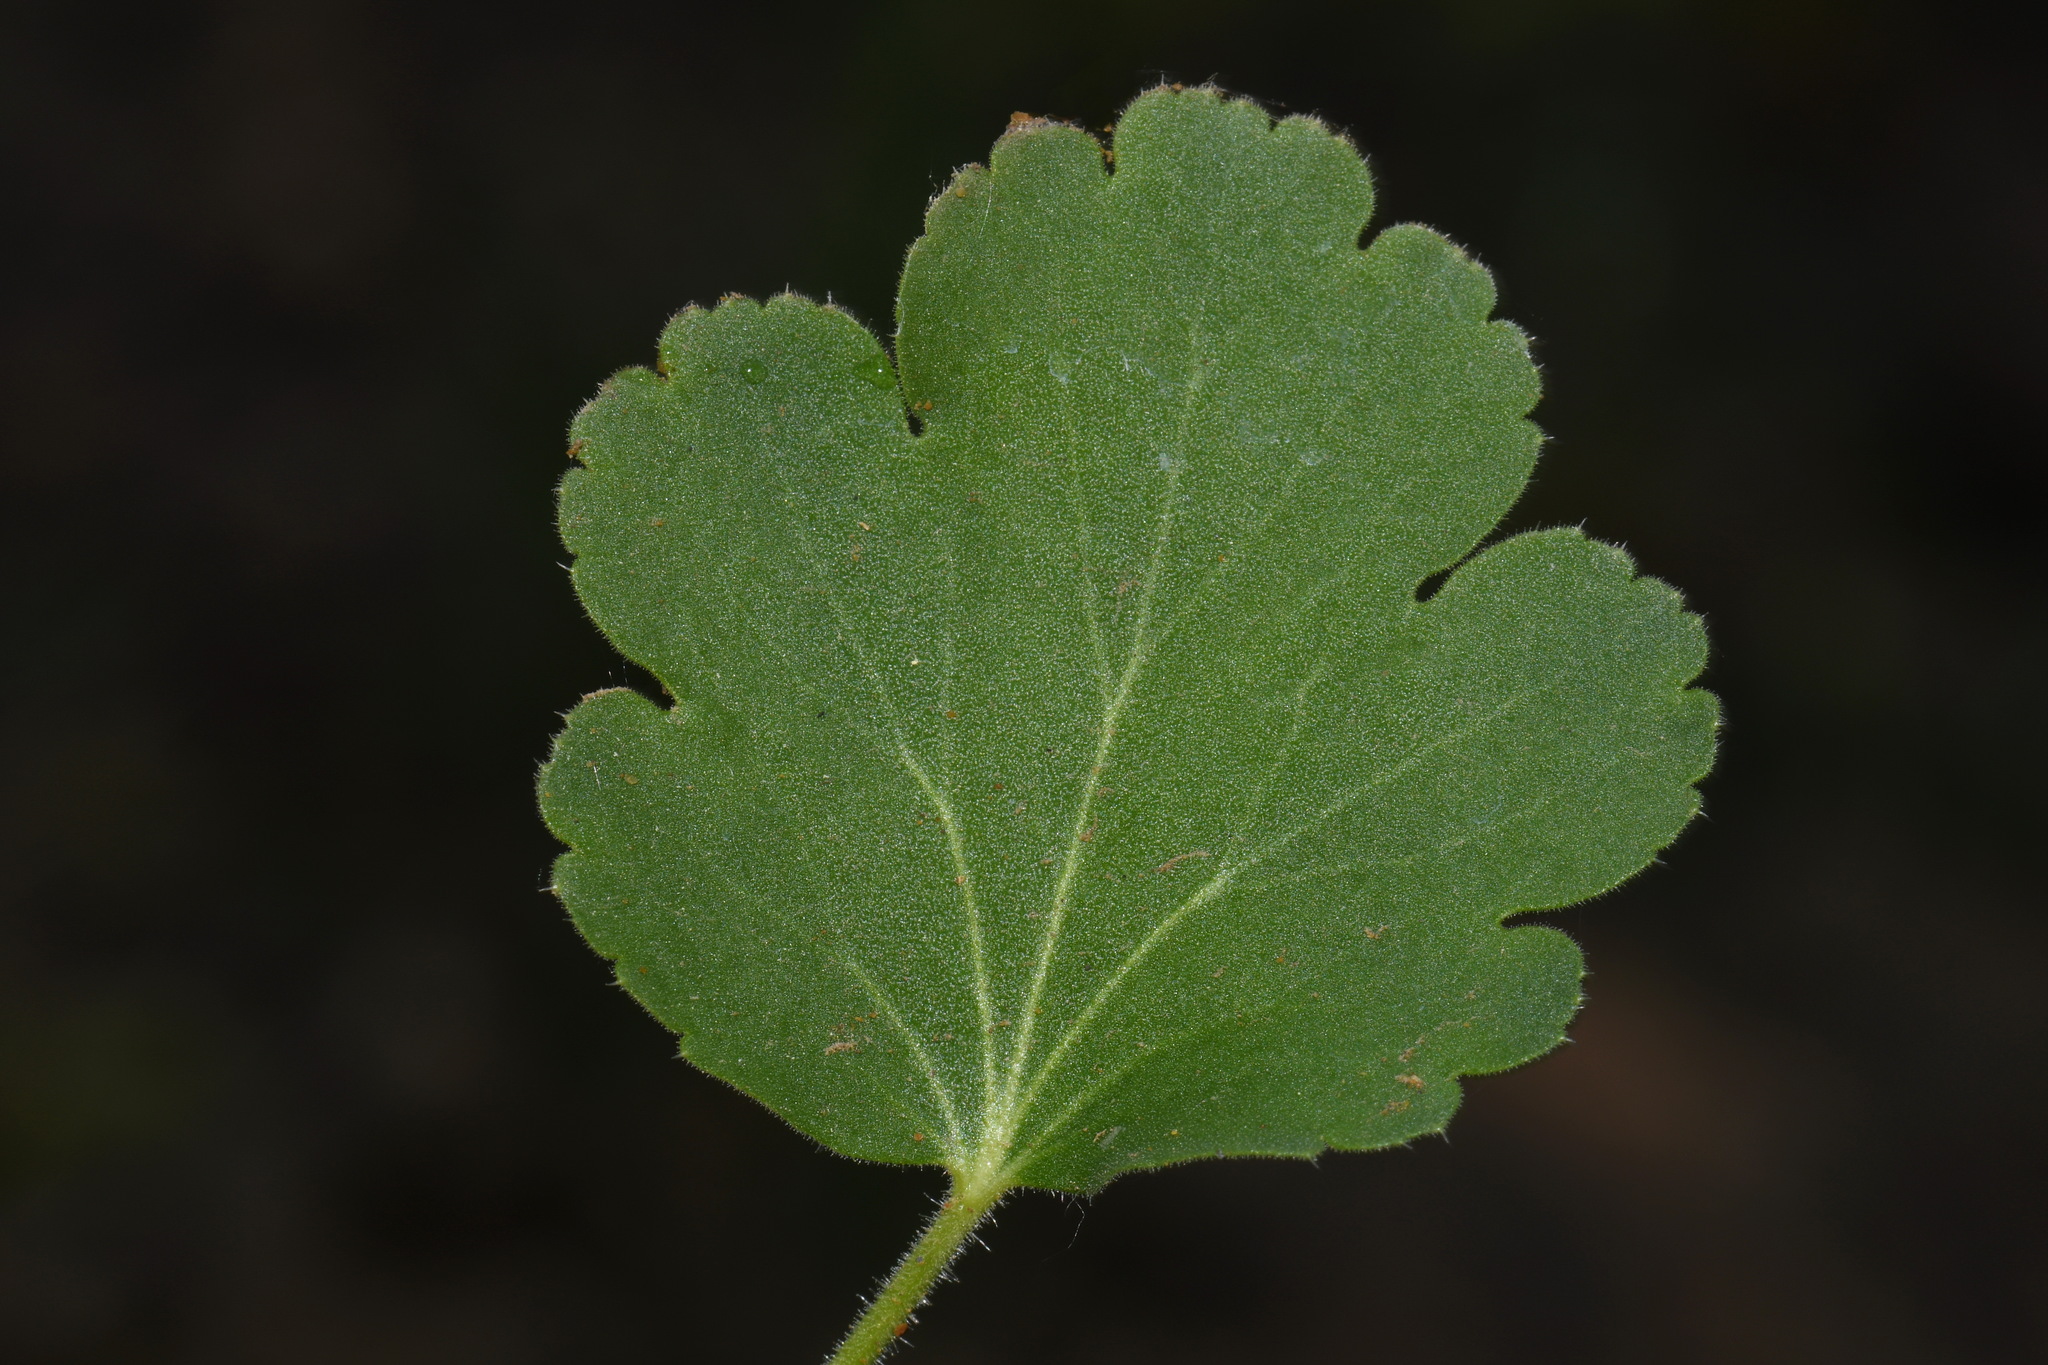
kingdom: Plantae
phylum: Tracheophyta
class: Magnoliopsida
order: Saxifragales
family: Saxifragaceae
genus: Heuchera
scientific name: Heuchera cylindrica
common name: Mat alumroot
